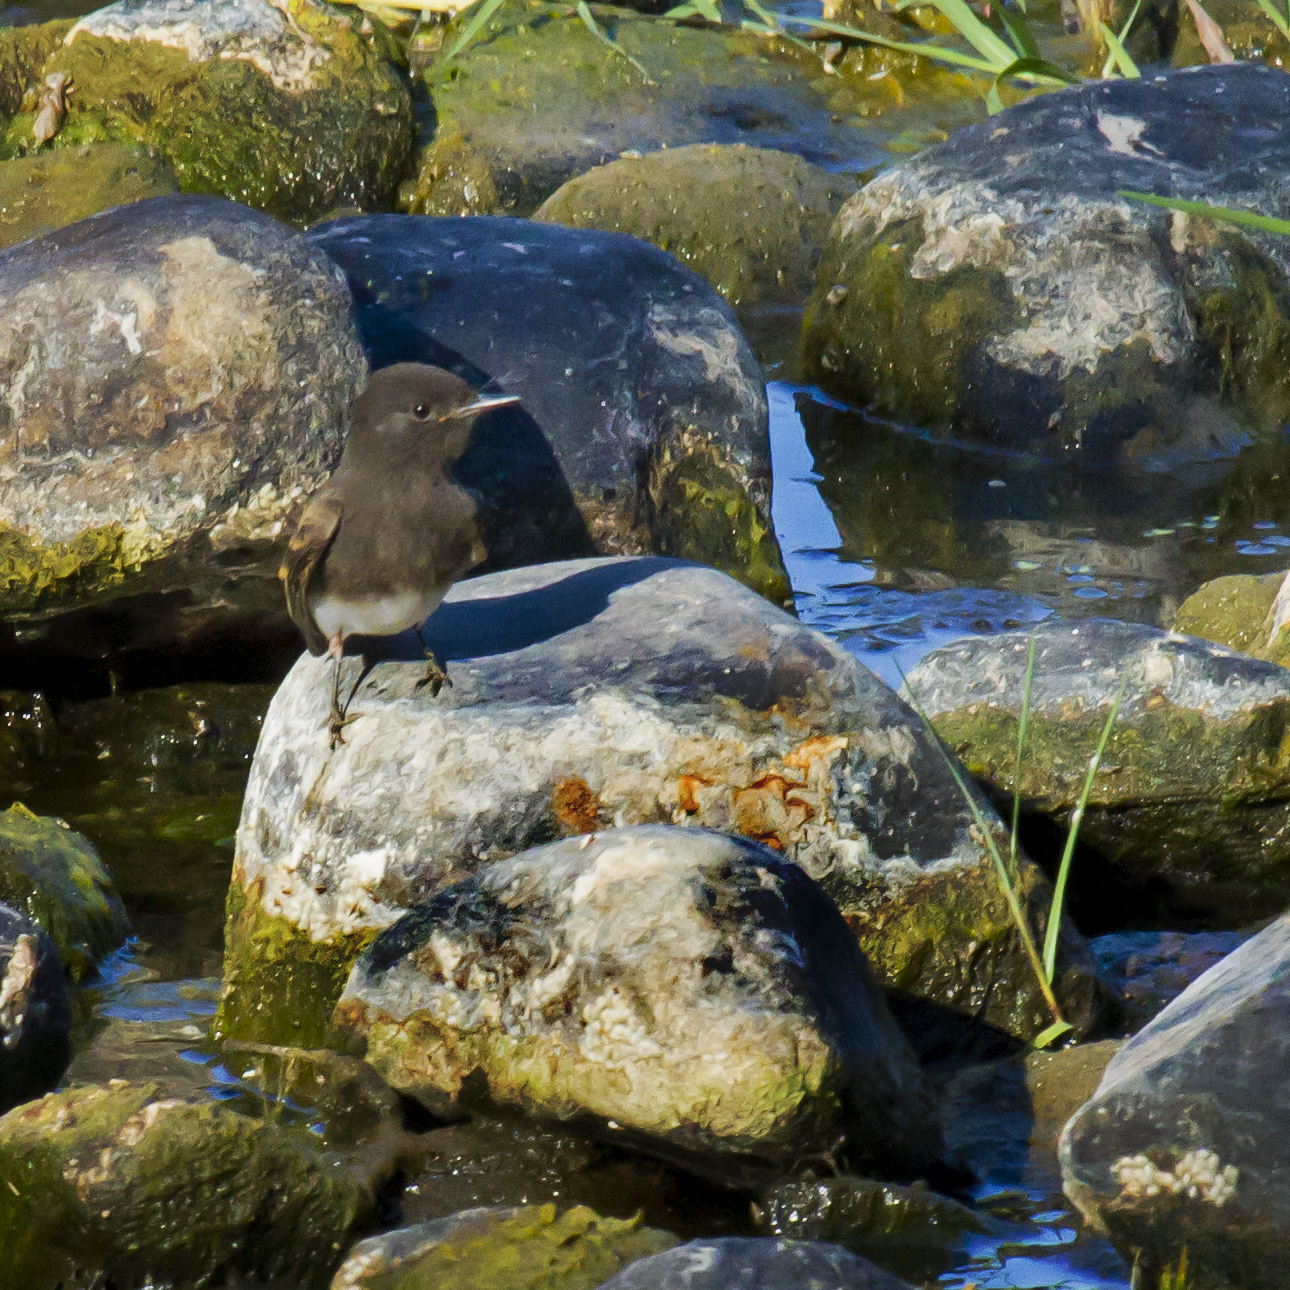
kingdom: Animalia
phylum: Chordata
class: Aves
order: Passeriformes
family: Tyrannidae
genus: Sayornis
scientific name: Sayornis nigricans
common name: Black phoebe
